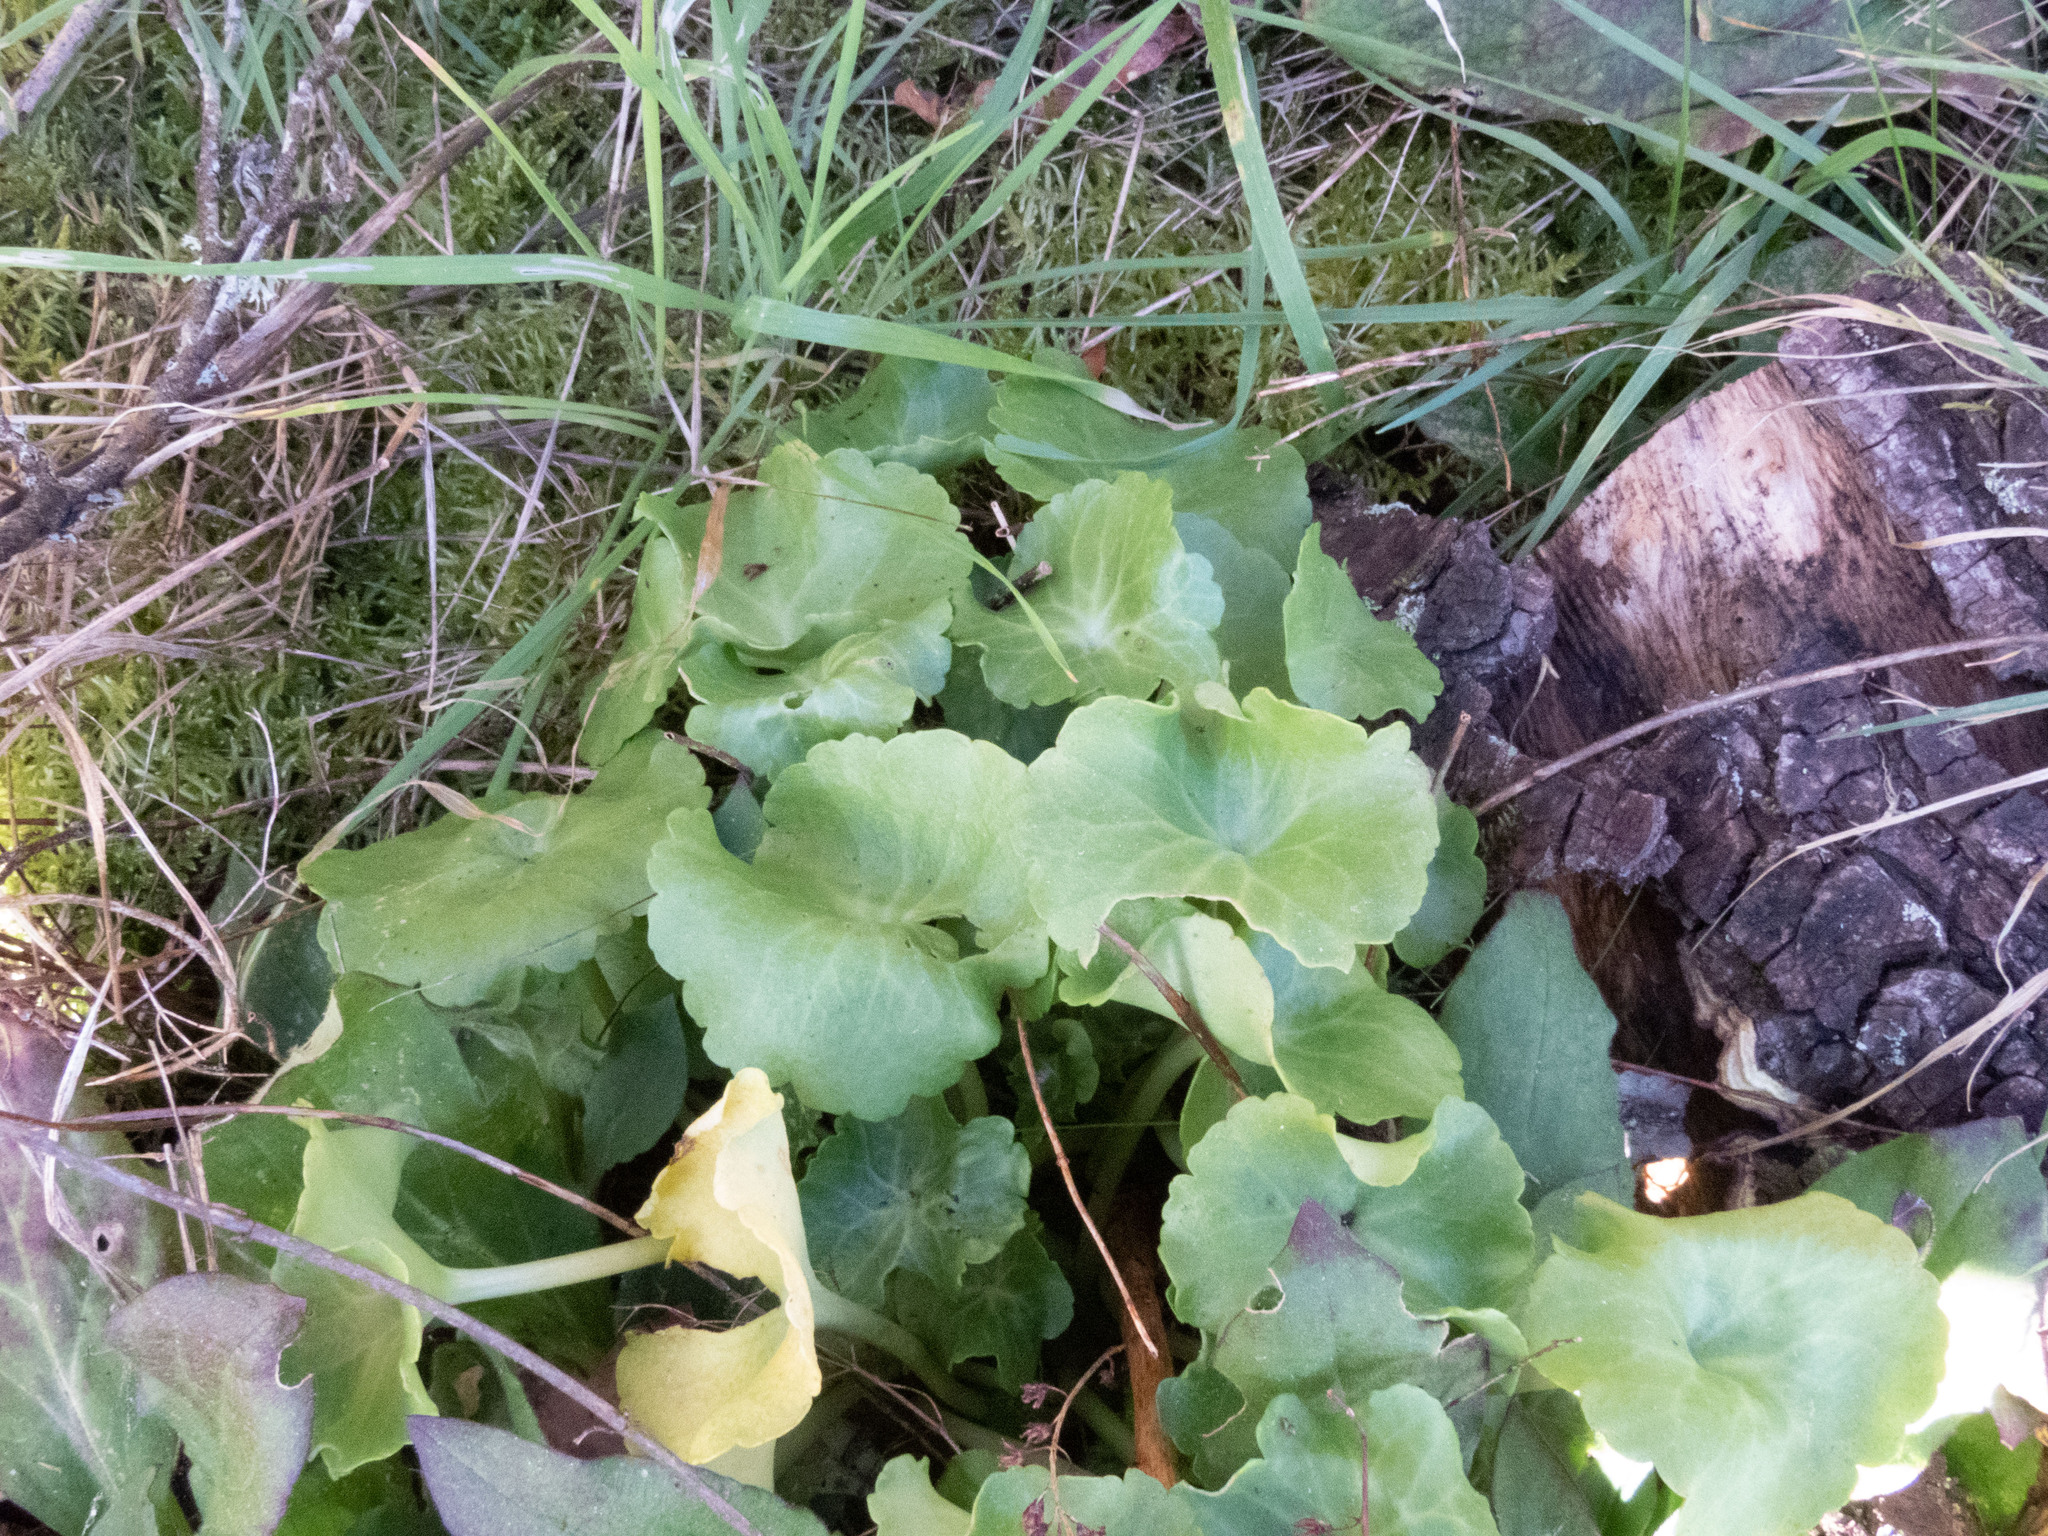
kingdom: Plantae
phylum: Tracheophyta
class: Magnoliopsida
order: Saxifragales
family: Crassulaceae
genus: Umbilicus
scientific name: Umbilicus rupestris
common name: Navelwort
